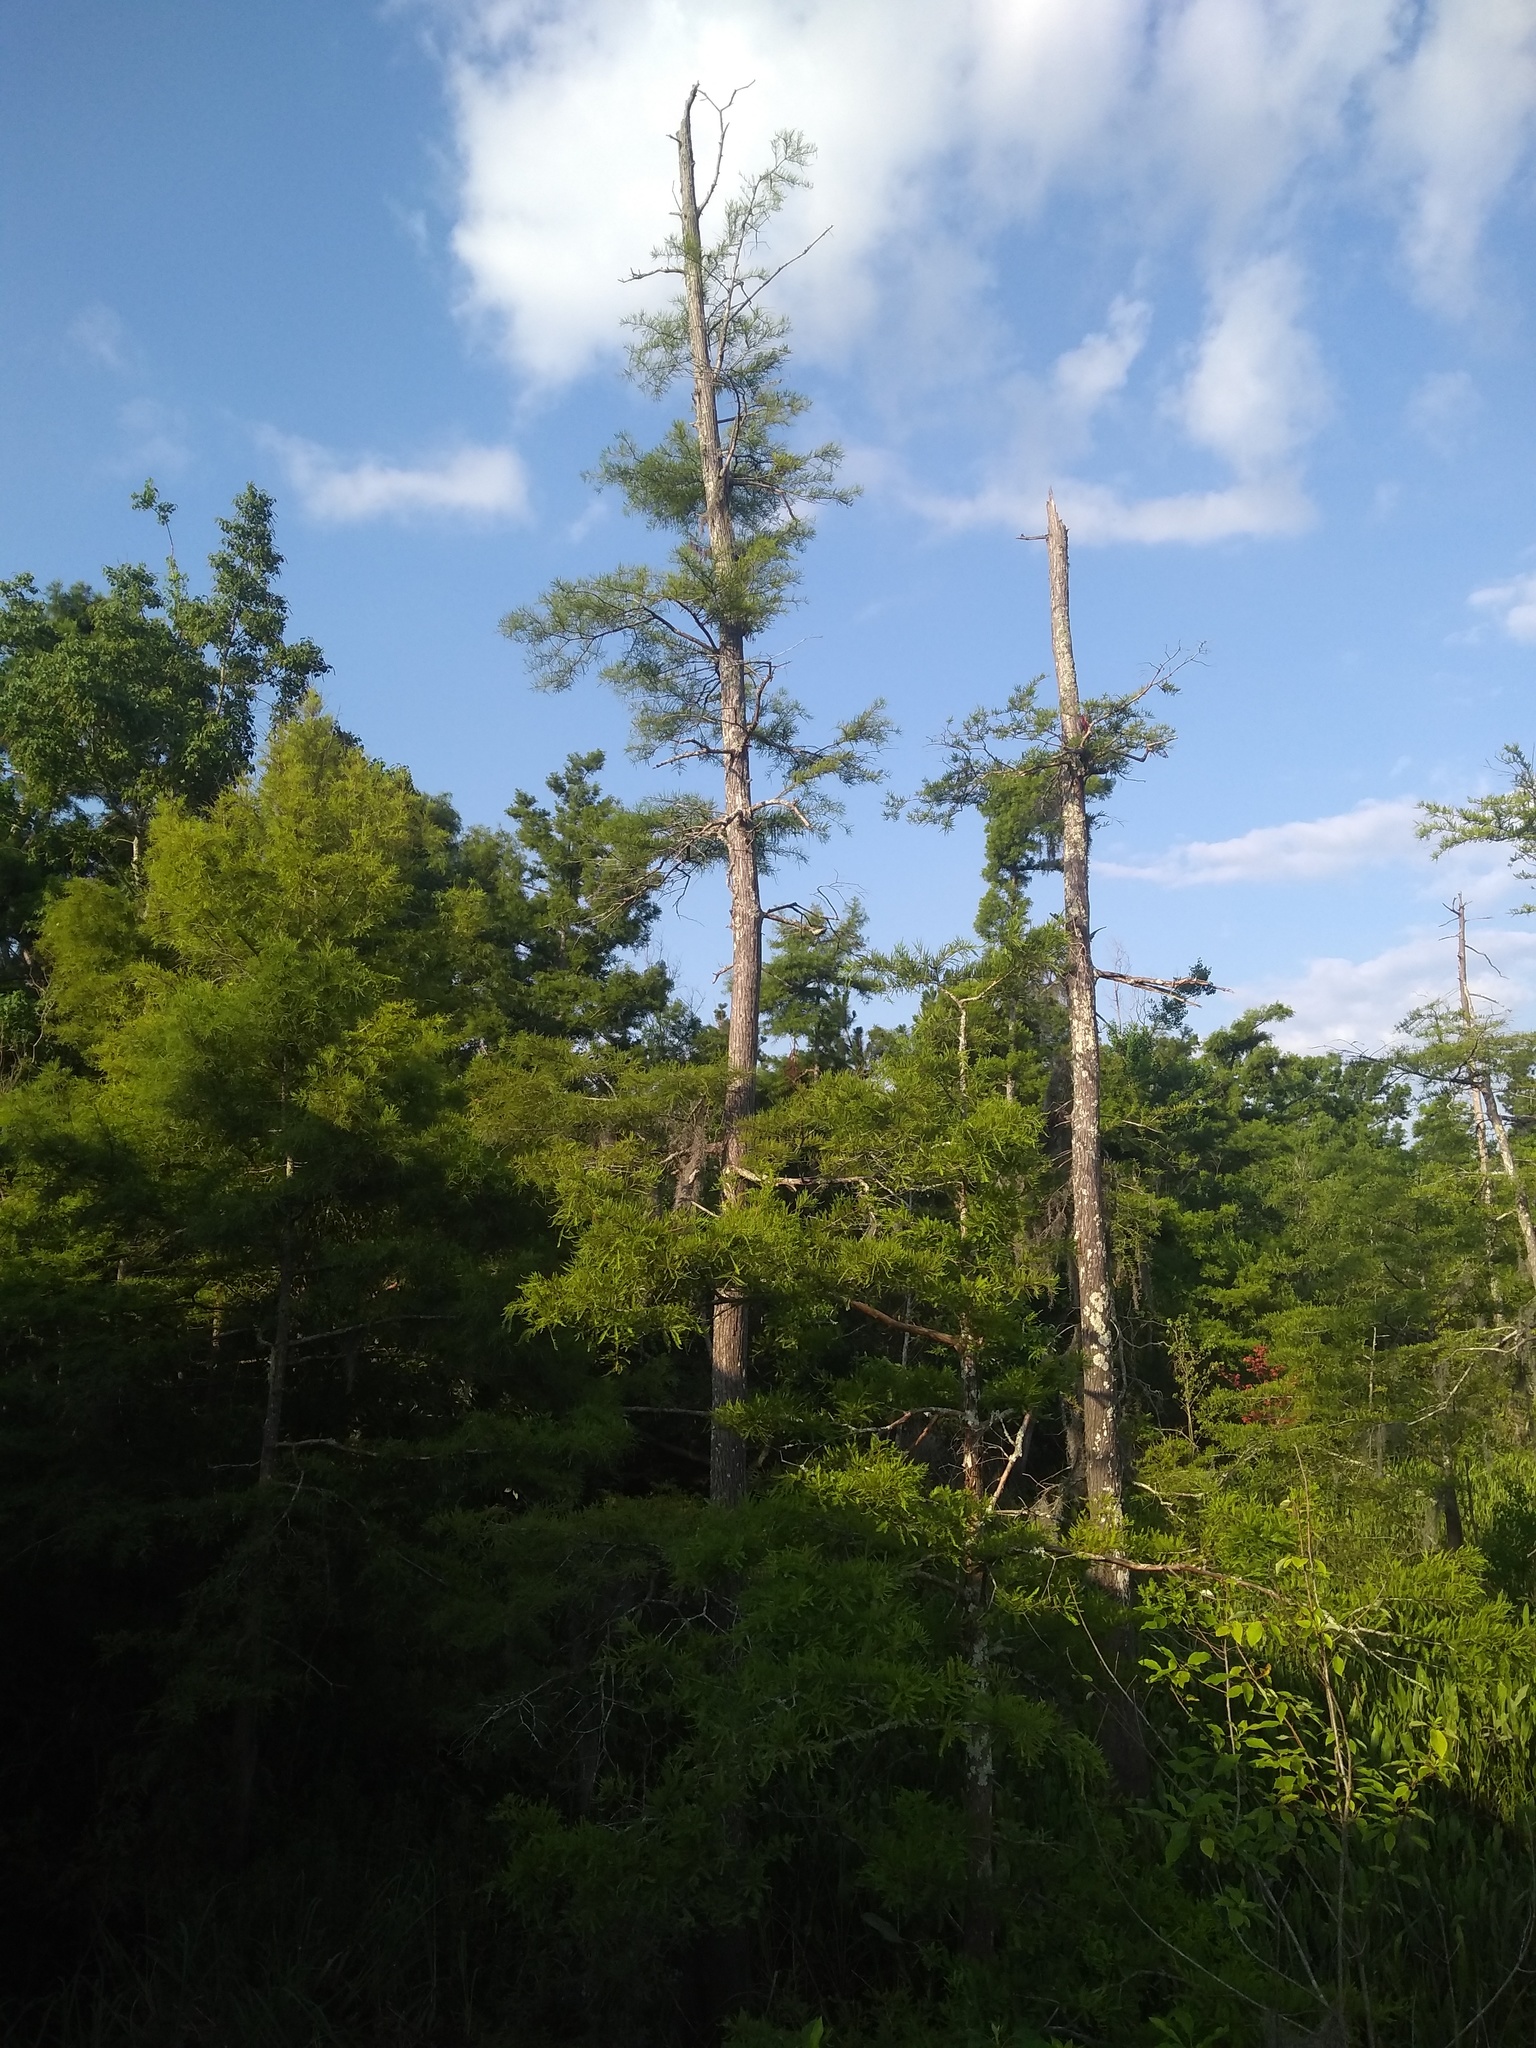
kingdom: Plantae
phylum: Tracheophyta
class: Pinopsida
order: Pinales
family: Cupressaceae
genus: Taxodium
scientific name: Taxodium distichum
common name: Bald cypress
